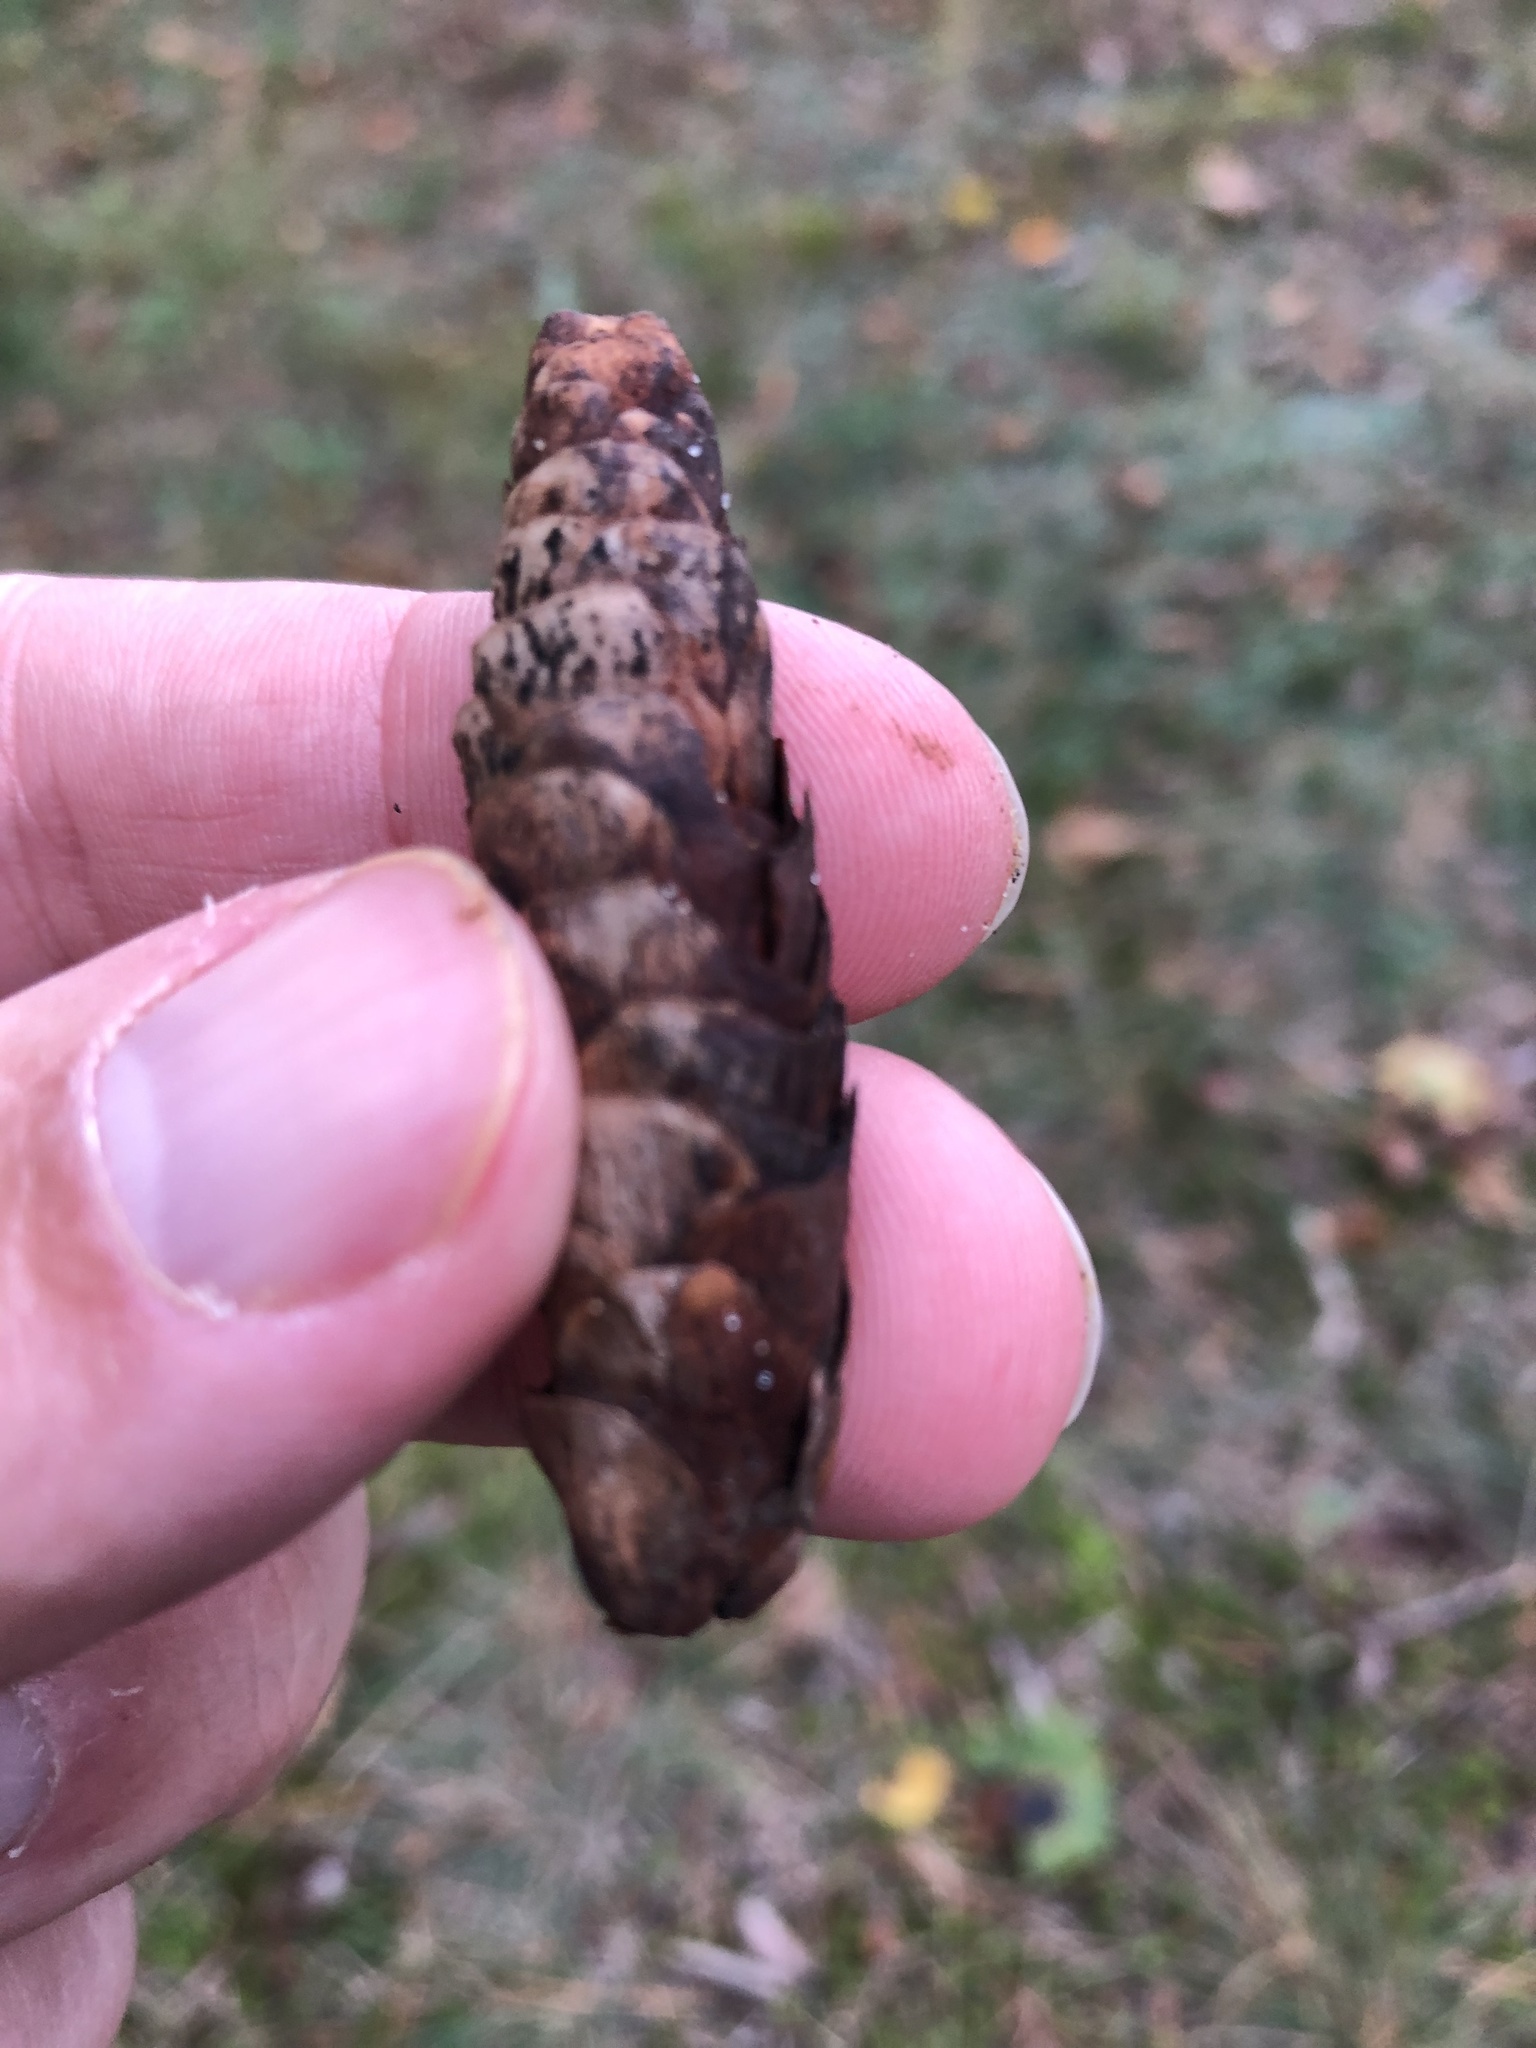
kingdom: Plantae
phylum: Tracheophyta
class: Pinopsida
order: Pinales
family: Pinaceae
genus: Picea
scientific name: Picea glauca
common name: White spruce
